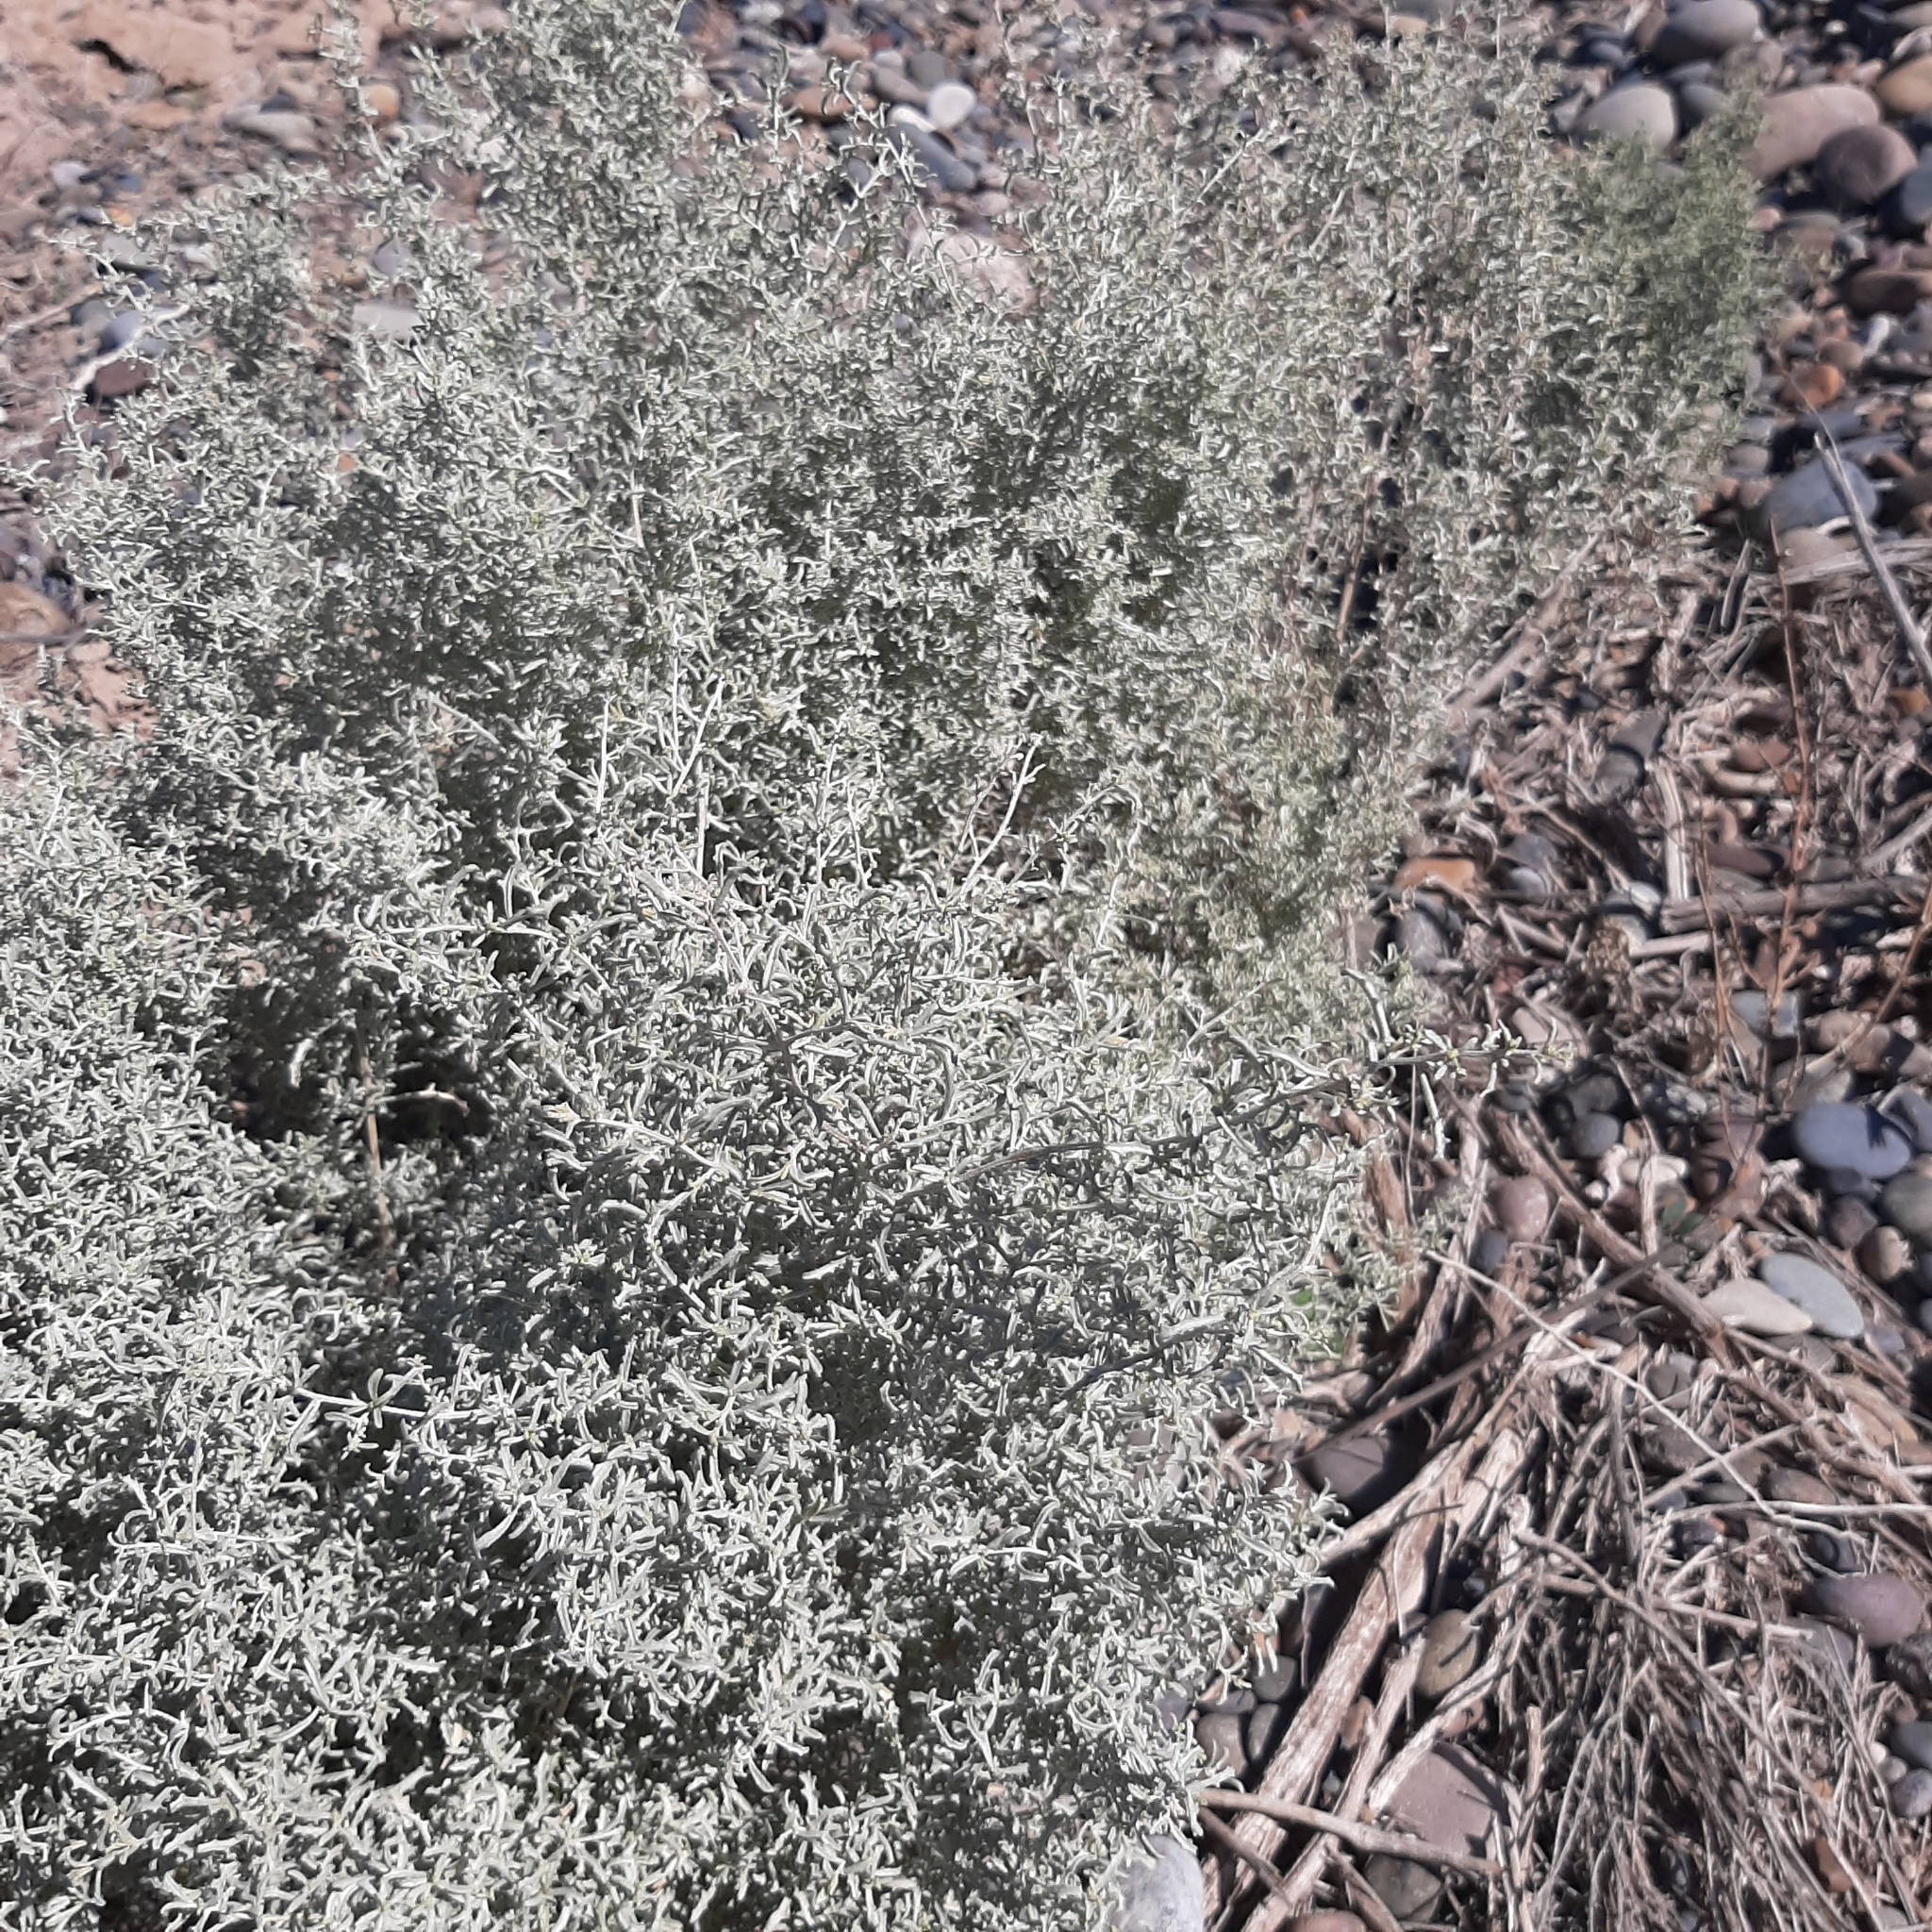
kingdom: Plantae
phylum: Tracheophyta
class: Magnoliopsida
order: Caryophyllales
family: Amaranthaceae
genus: Atriplex
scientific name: Atriplex lampa
